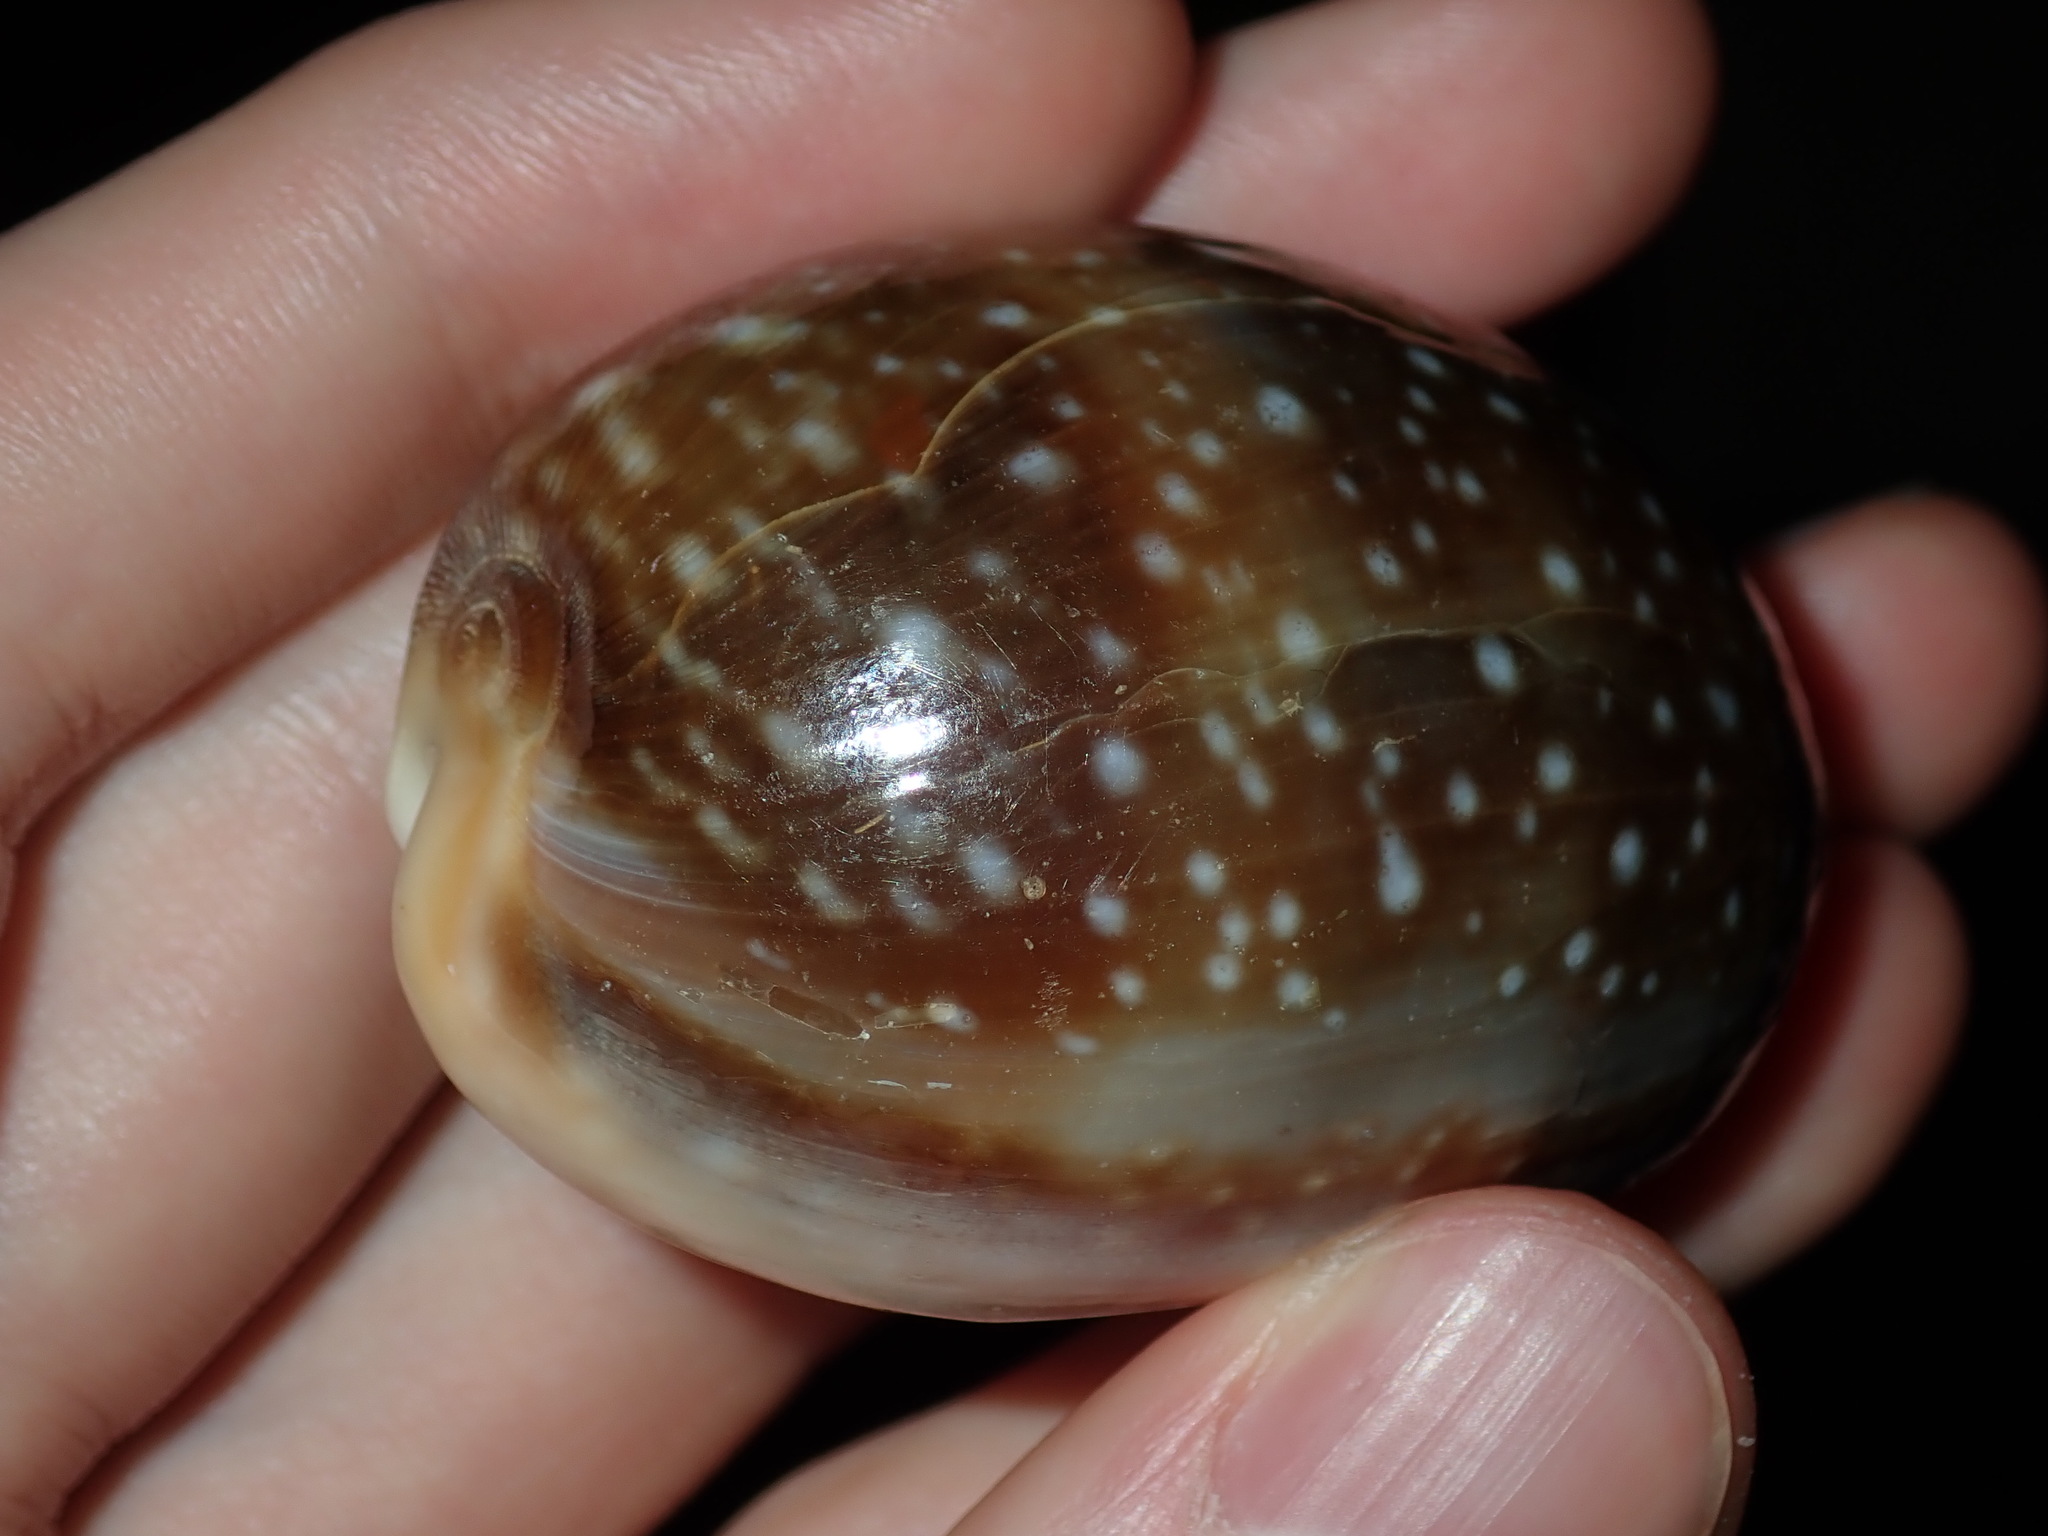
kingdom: Animalia
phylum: Mollusca
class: Gastropoda
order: Littorinimorpha
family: Cypraeidae
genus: Lyncina
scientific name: Lyncina vitellus
